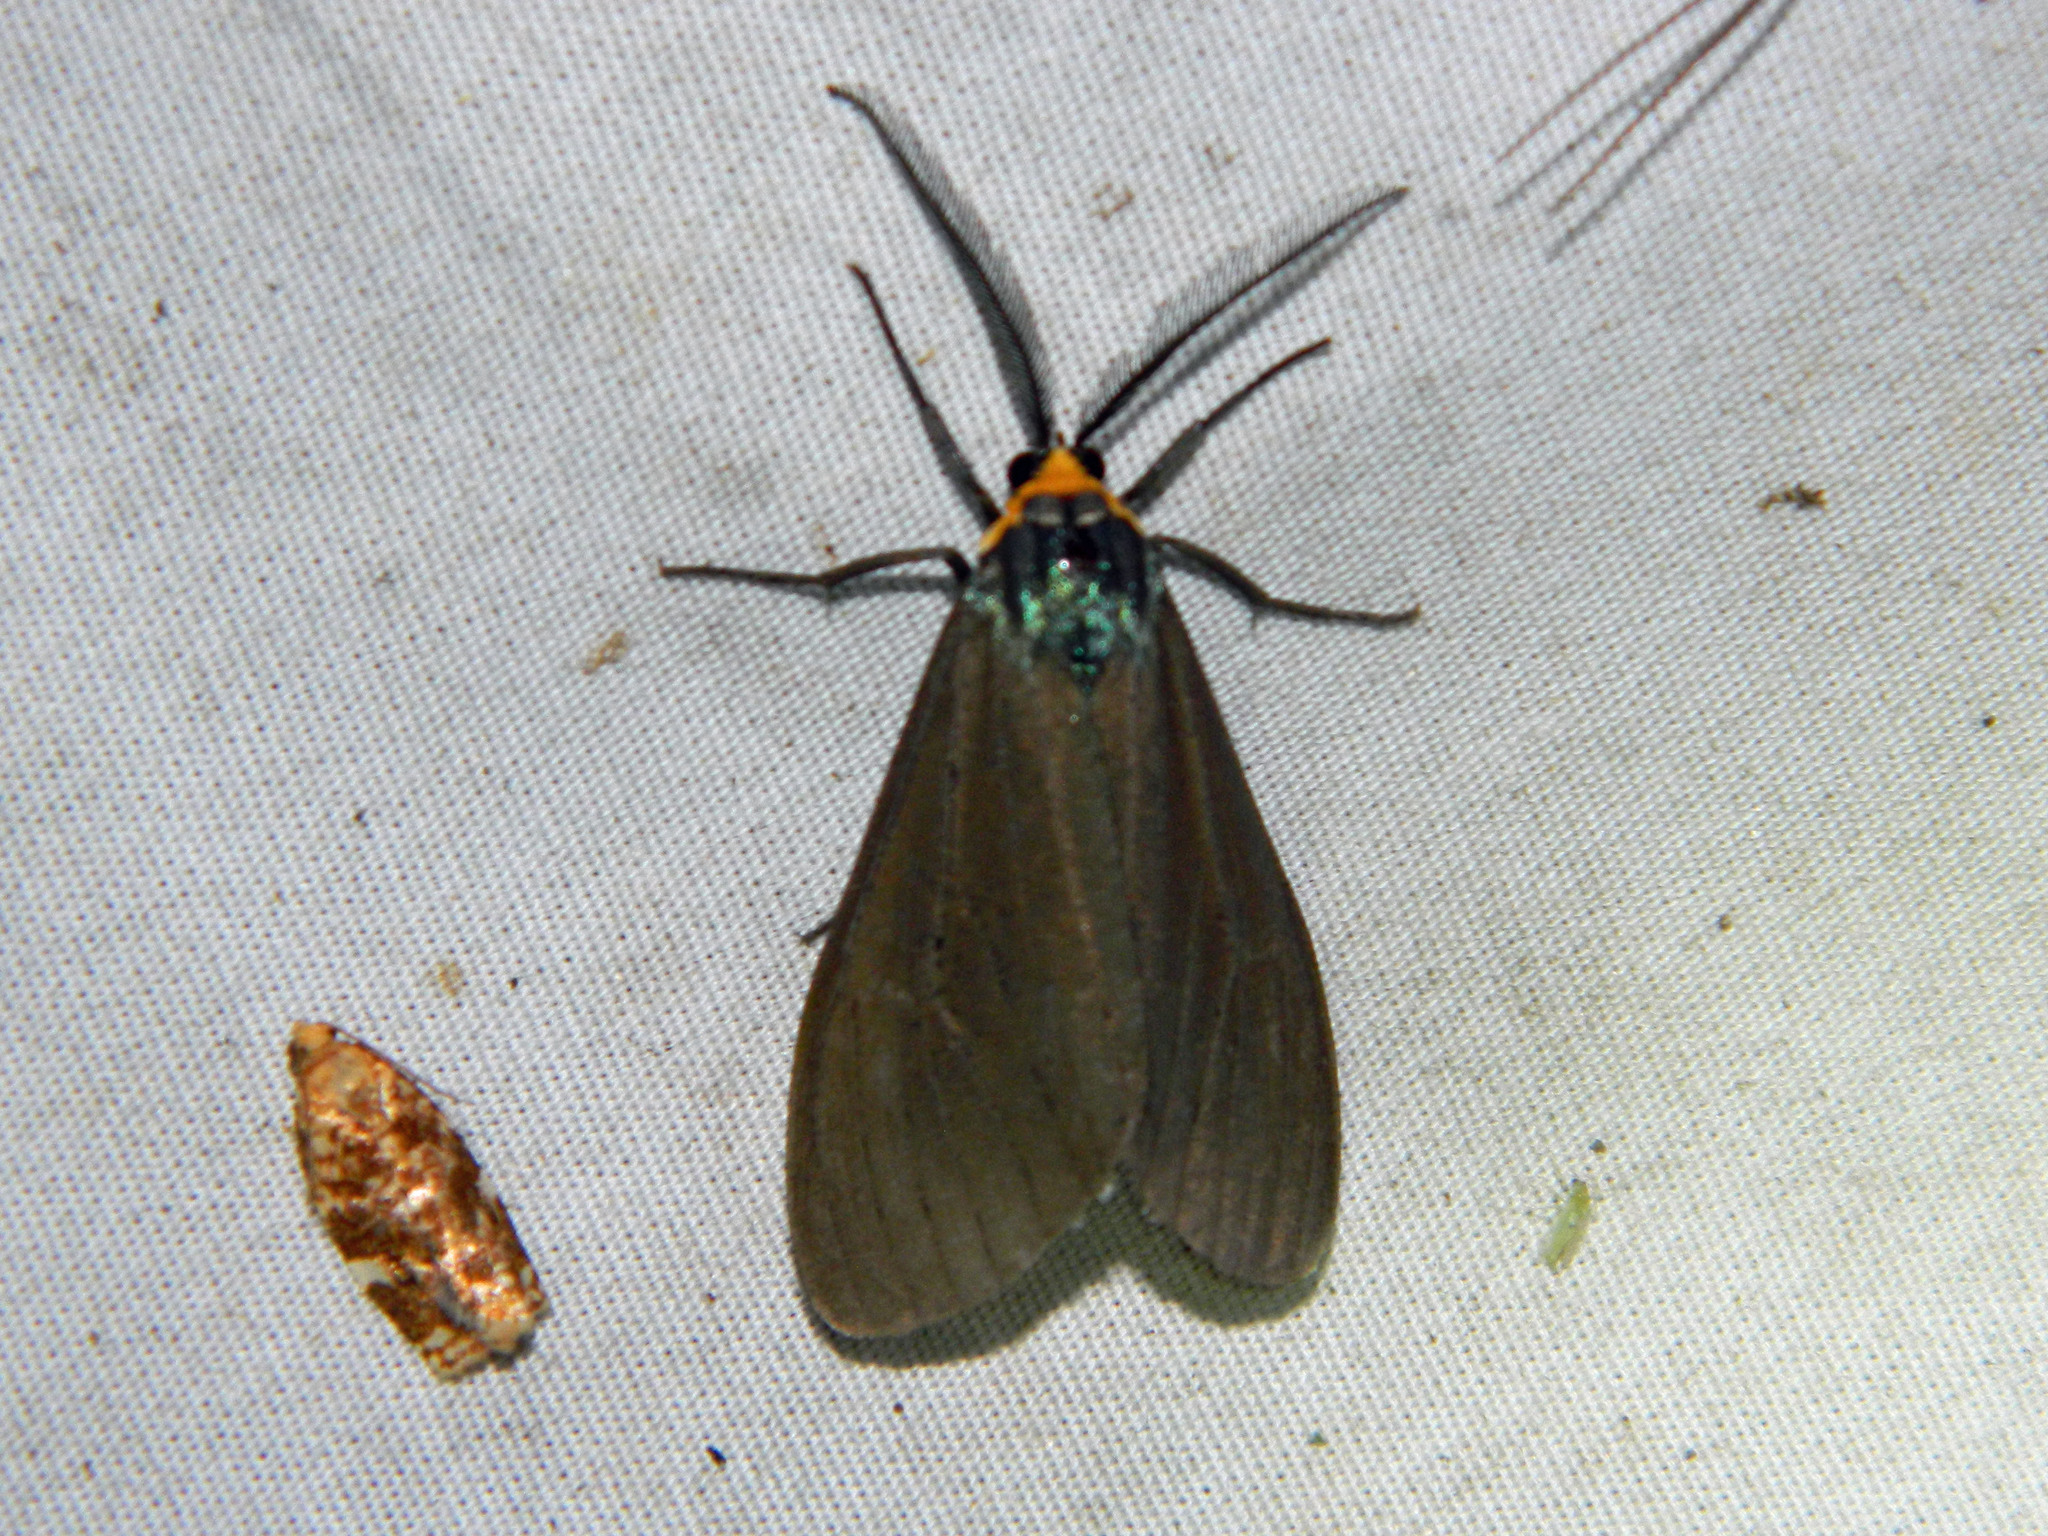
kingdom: Animalia
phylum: Arthropoda
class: Insecta
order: Lepidoptera
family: Erebidae
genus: Ctenucha
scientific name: Ctenucha virginica
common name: Virginia ctenucha moth
